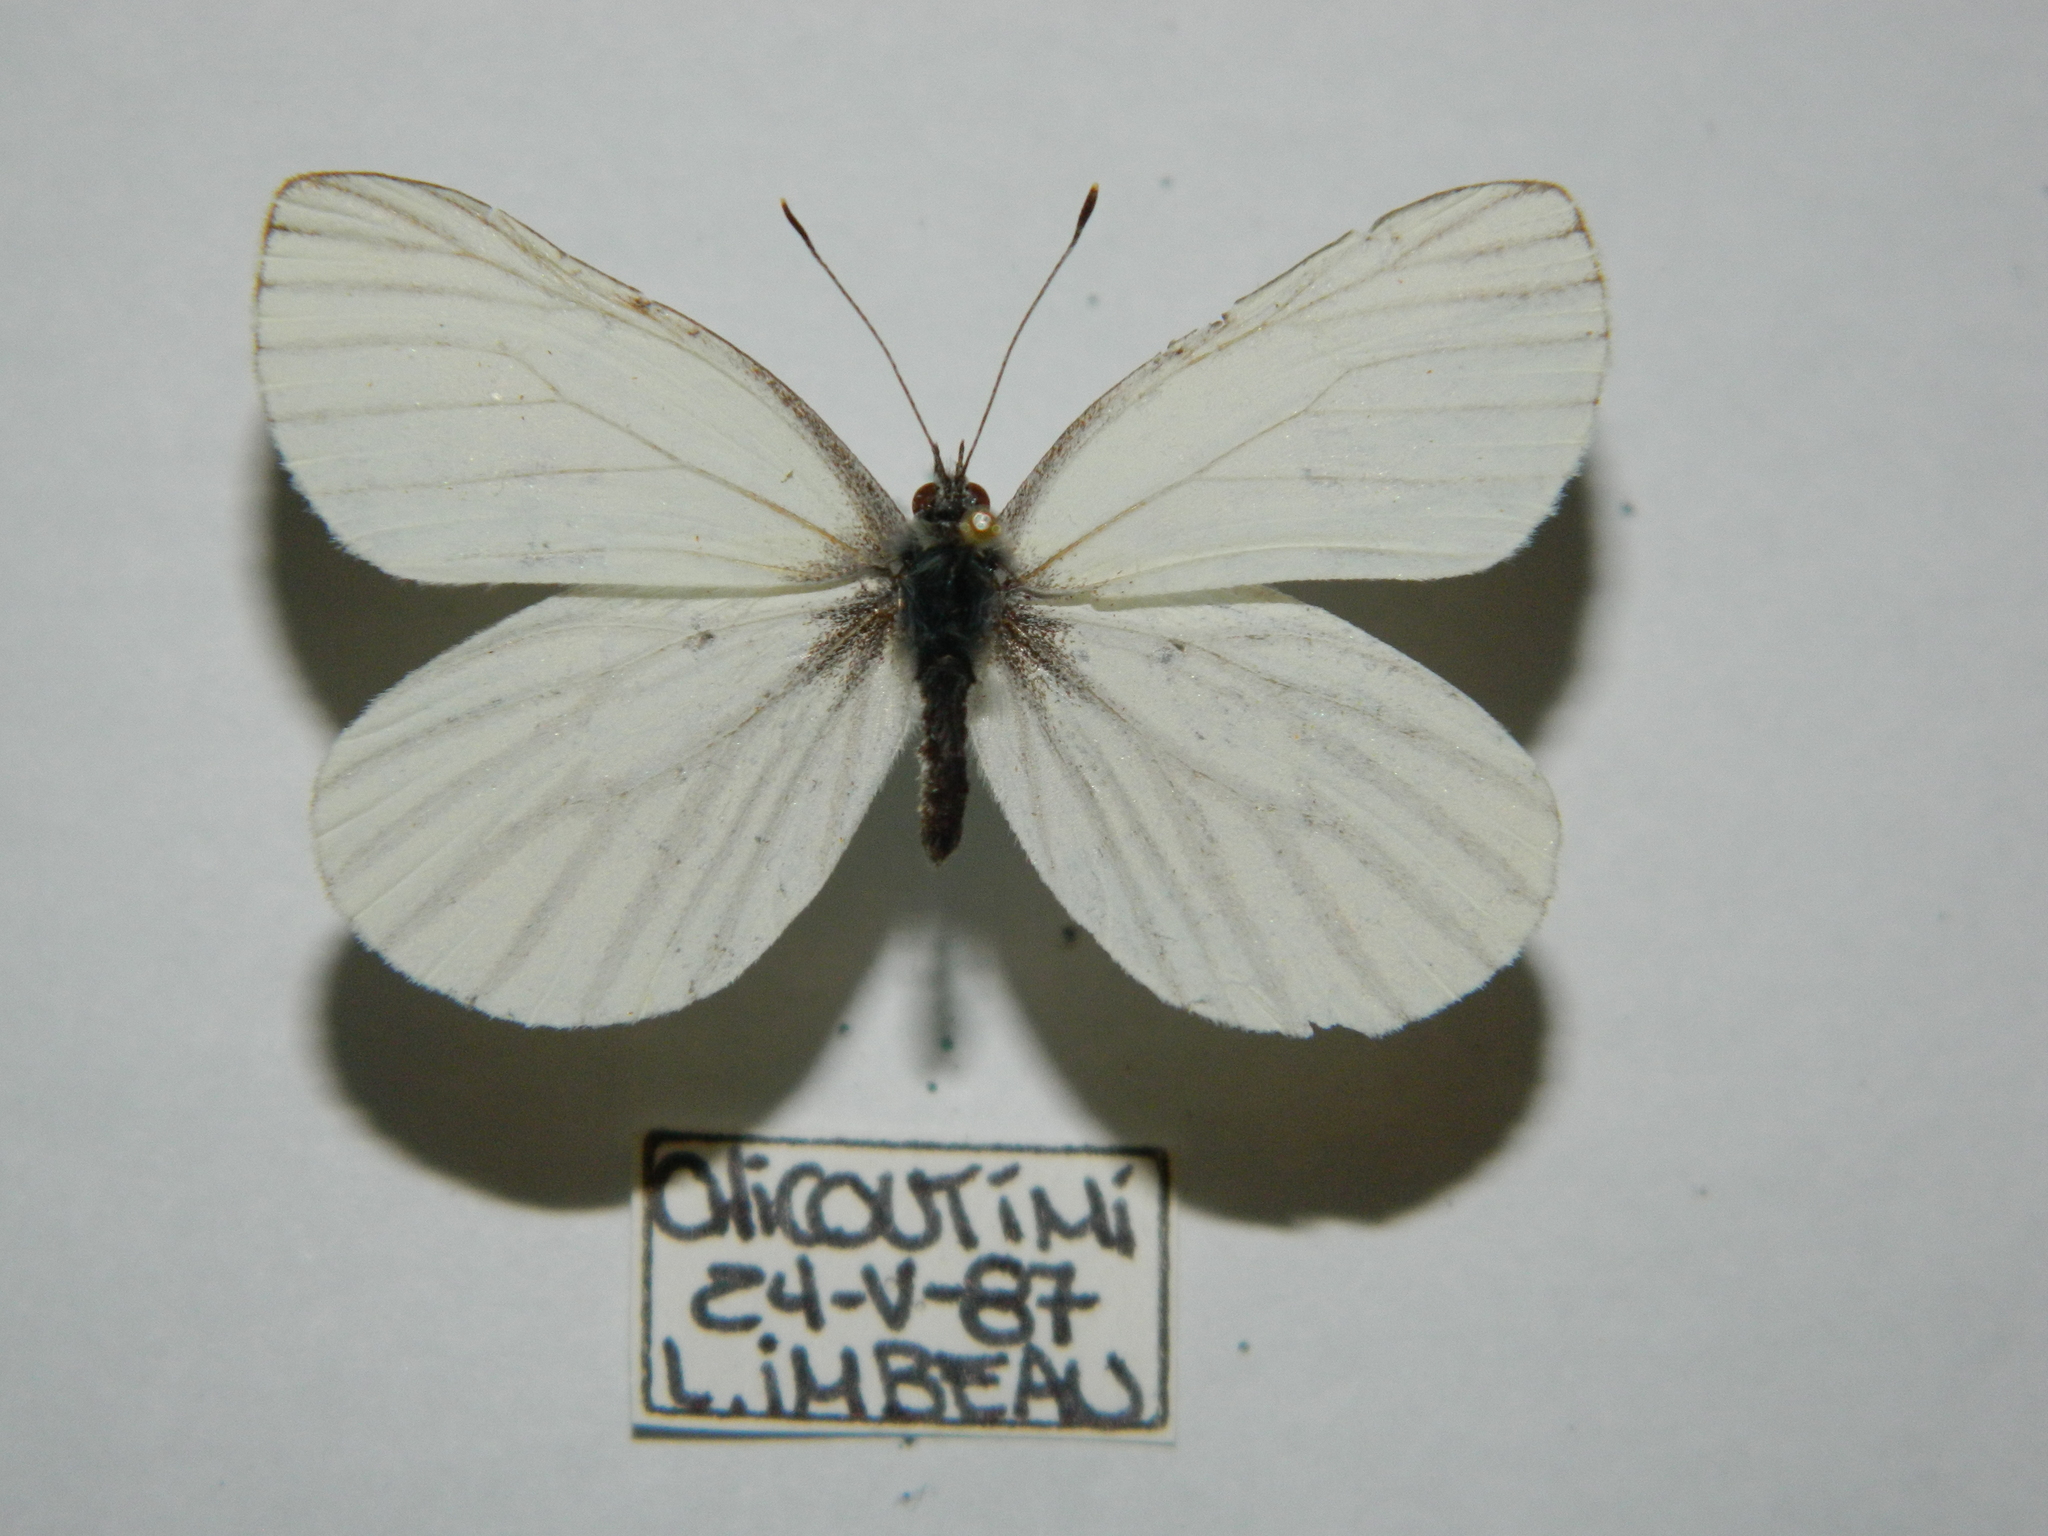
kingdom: Animalia
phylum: Arthropoda
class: Insecta
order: Lepidoptera
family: Pieridae
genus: Pieris
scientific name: Pieris oleracea
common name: Mustard white
